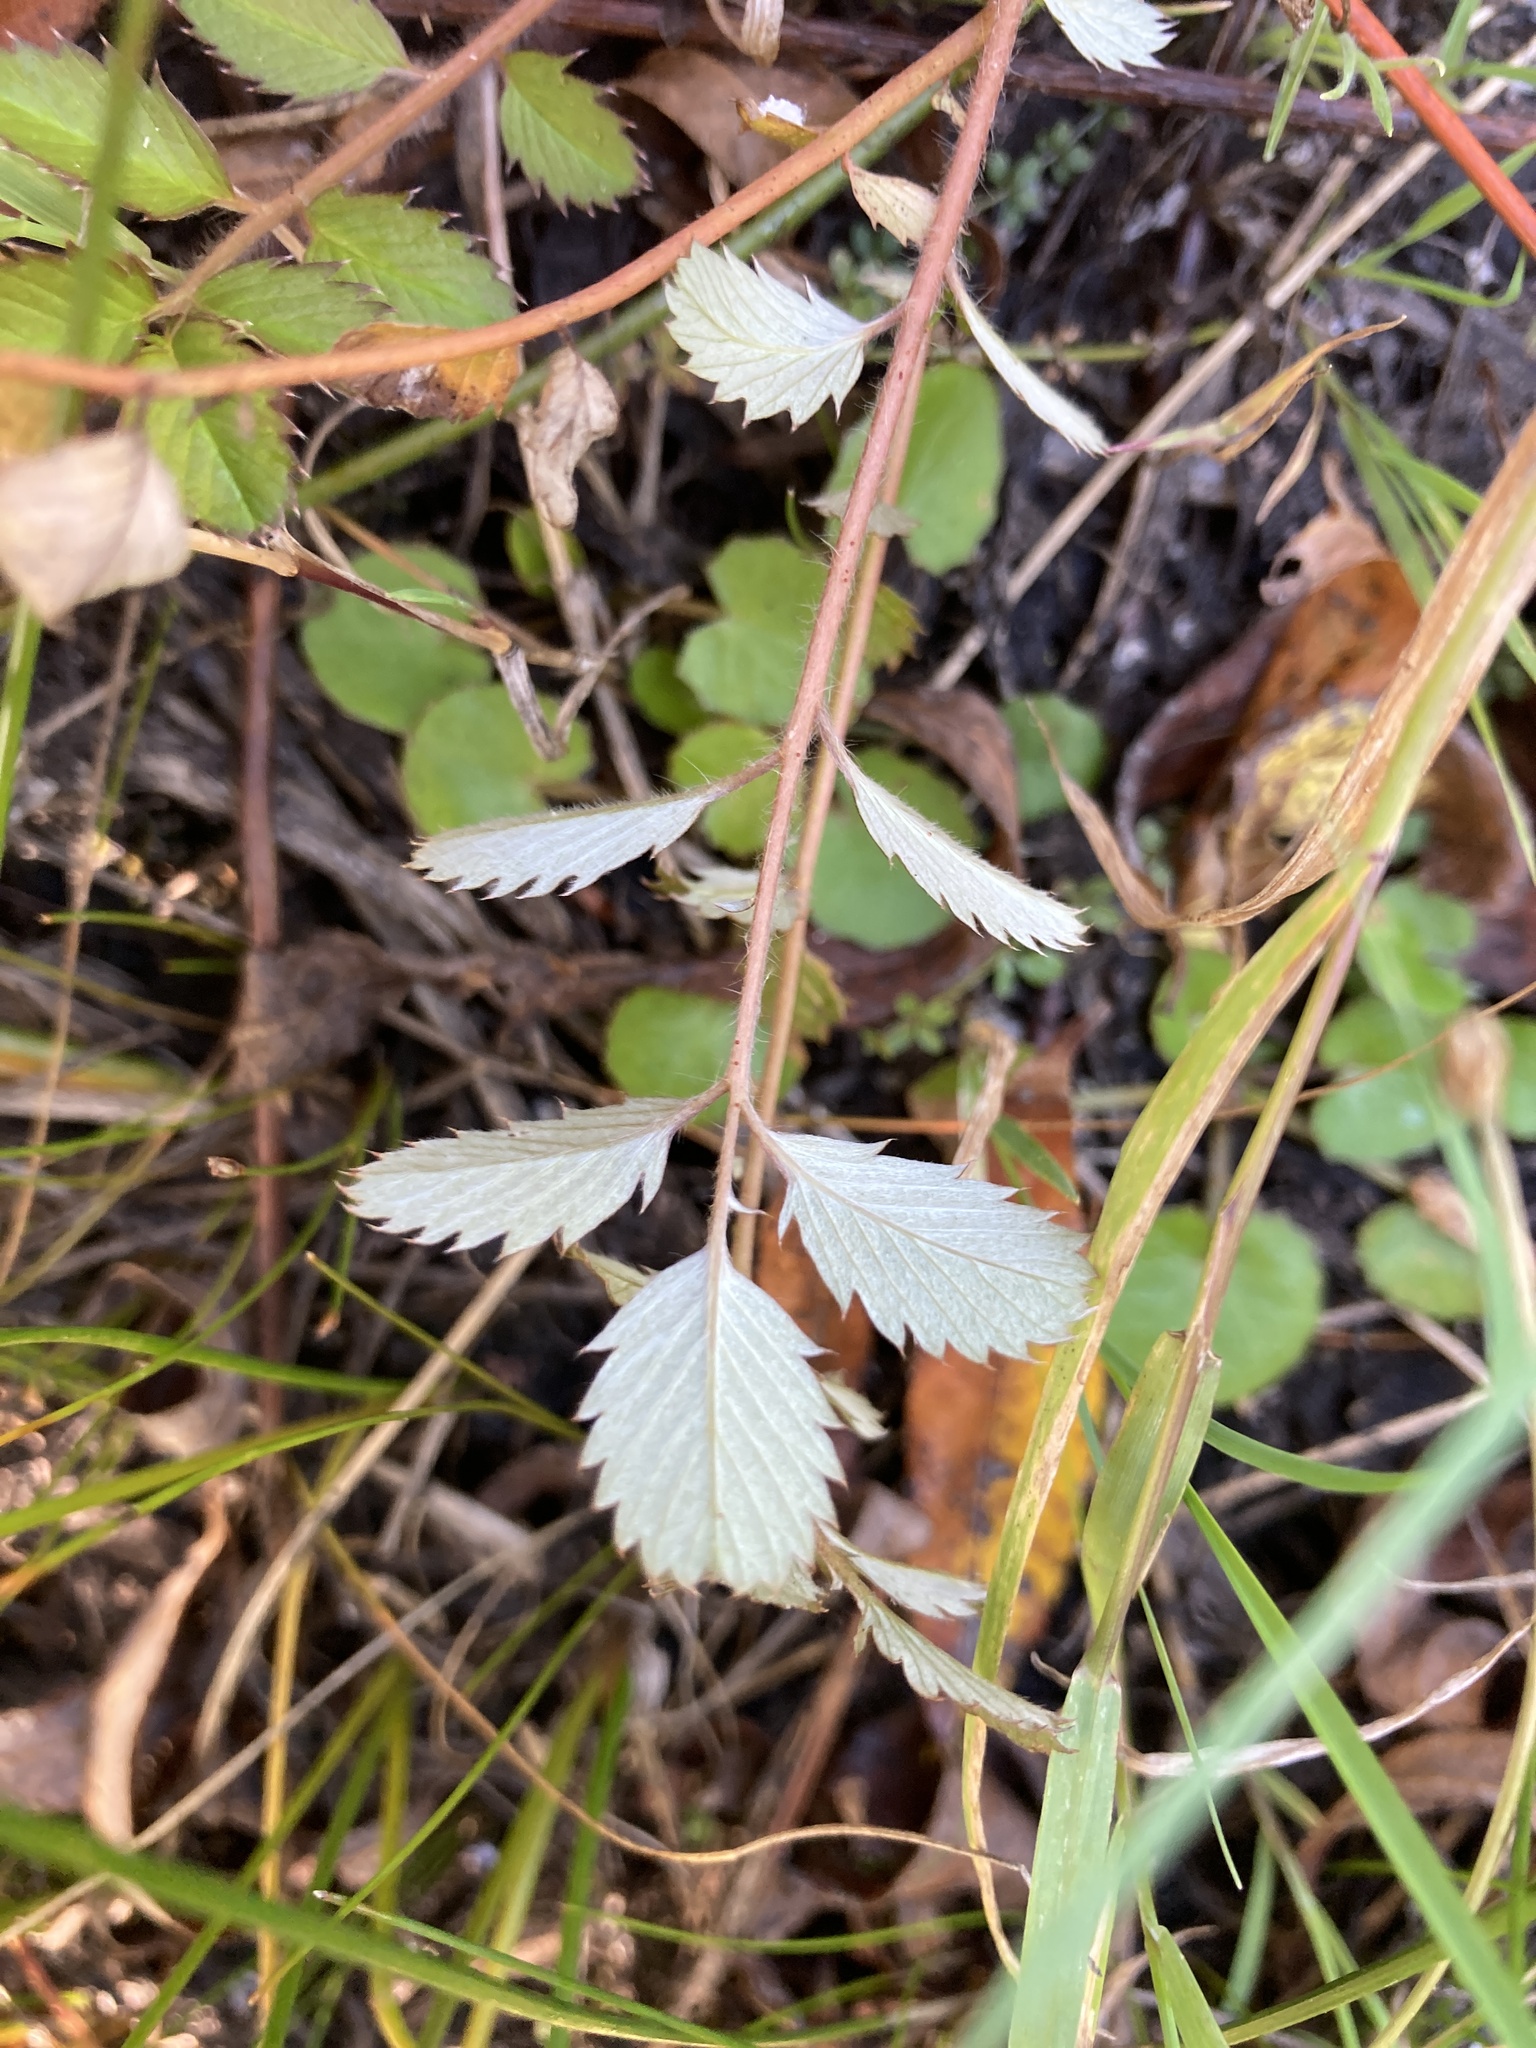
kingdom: Plantae
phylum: Tracheophyta
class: Magnoliopsida
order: Rosales
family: Rosaceae
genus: Argentina
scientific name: Argentina anserinoides
